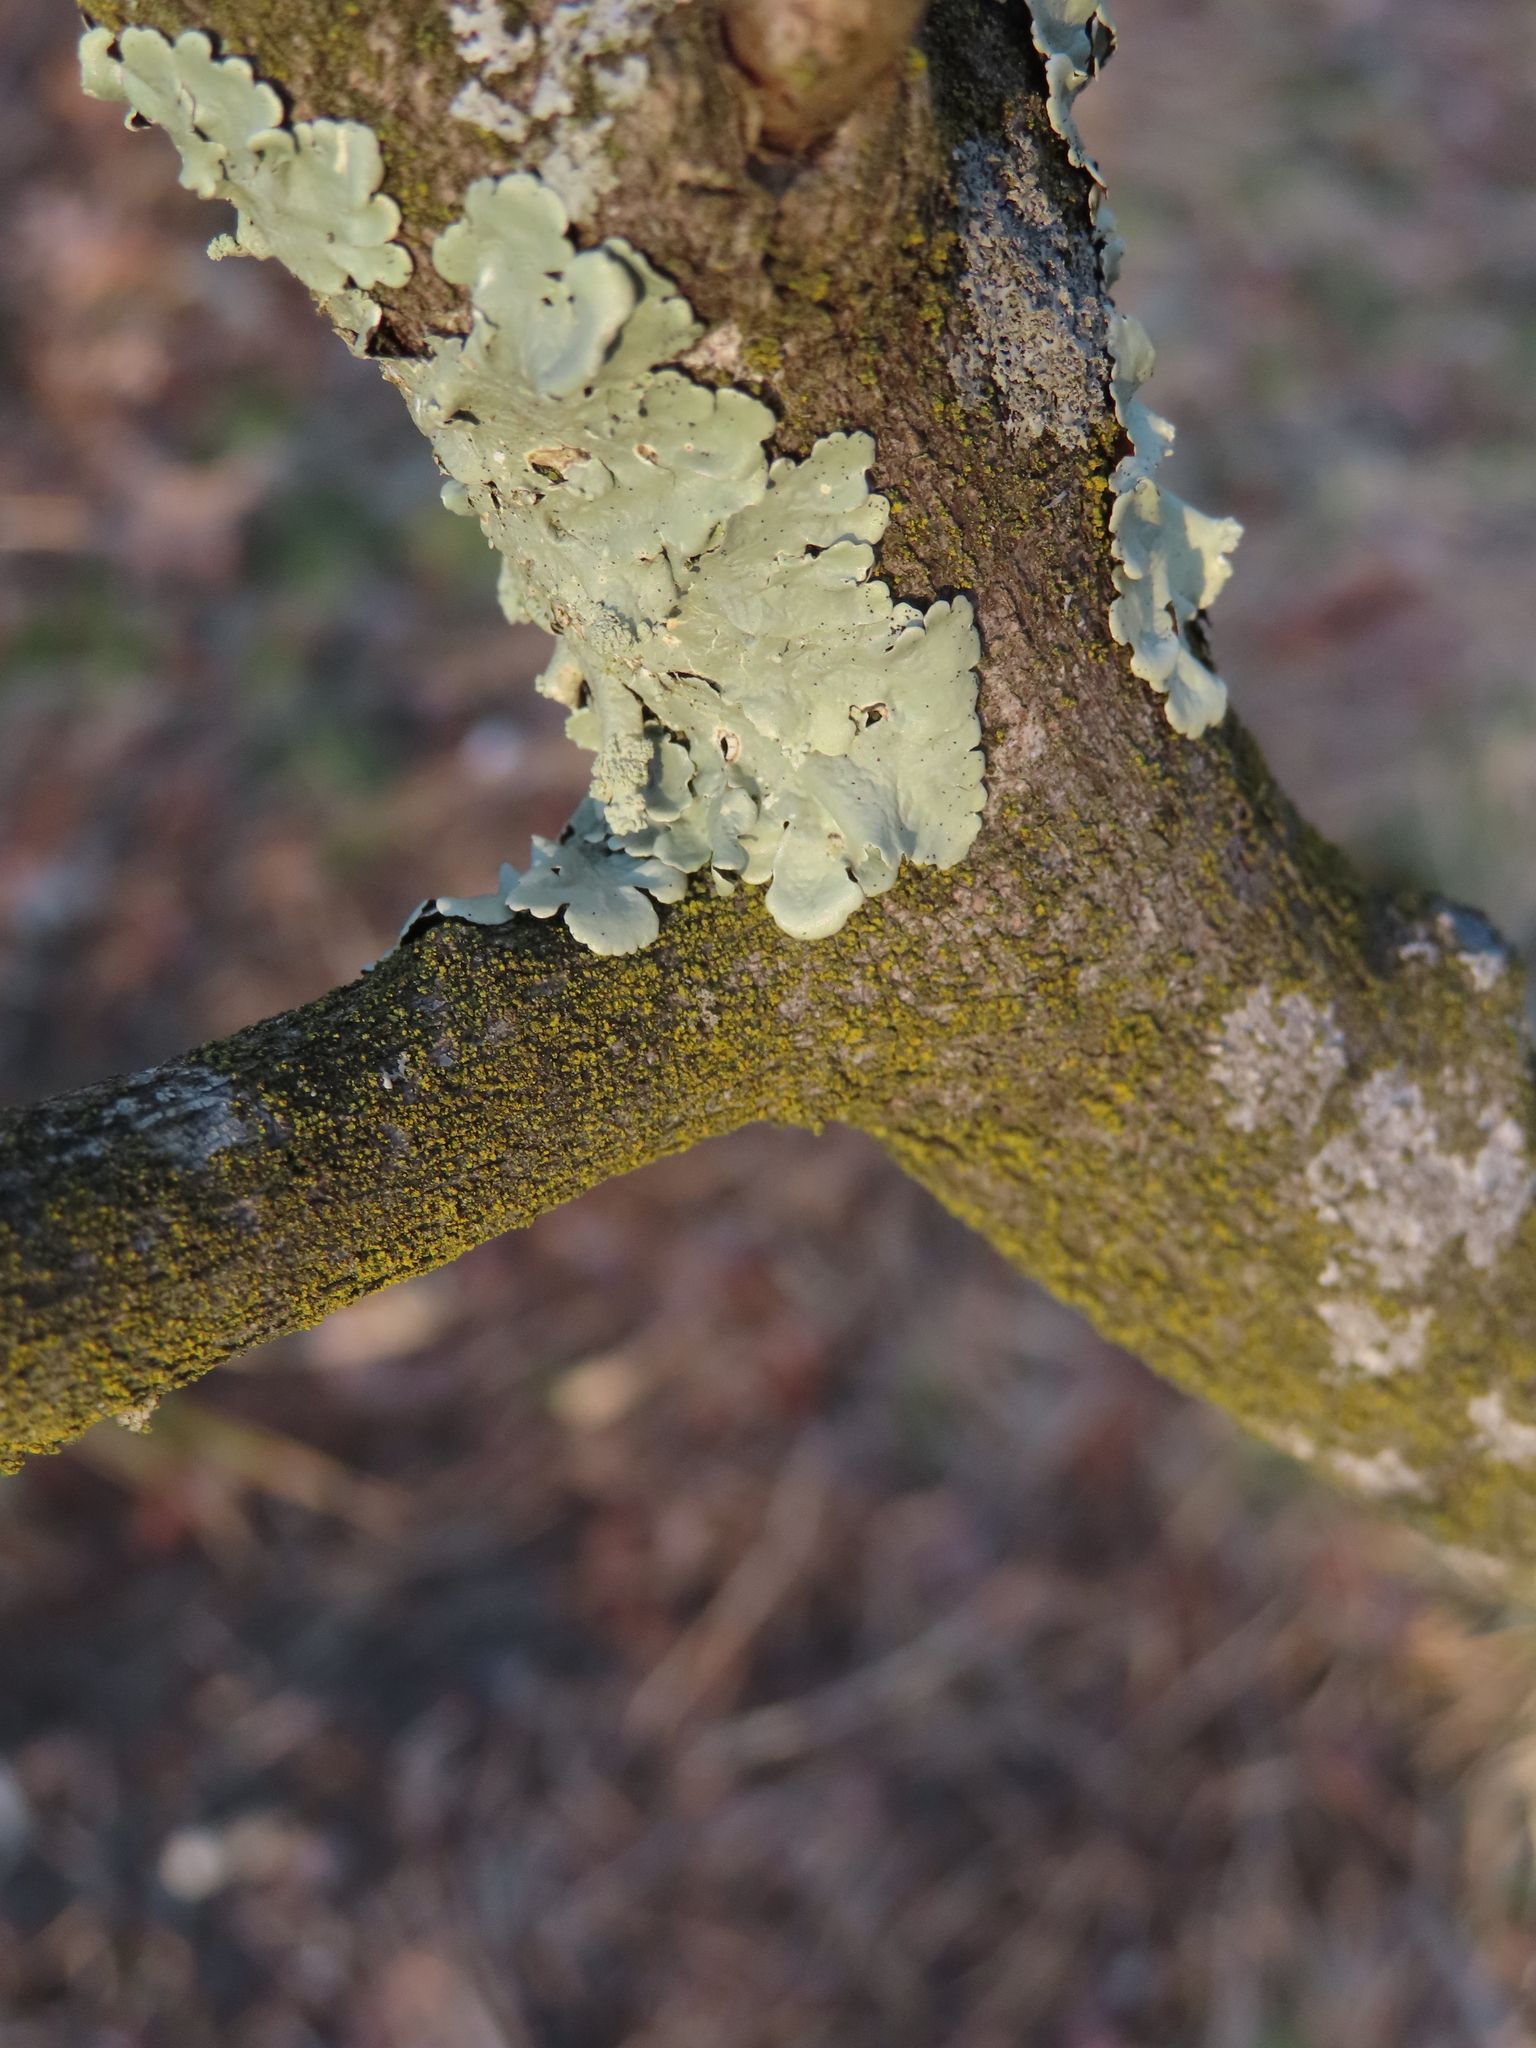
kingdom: Fungi
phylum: Ascomycota
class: Lecanoromycetes
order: Lecanorales
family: Parmeliaceae
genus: Flavoparmelia
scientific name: Flavoparmelia caperata
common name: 40-mile per hour lichen
